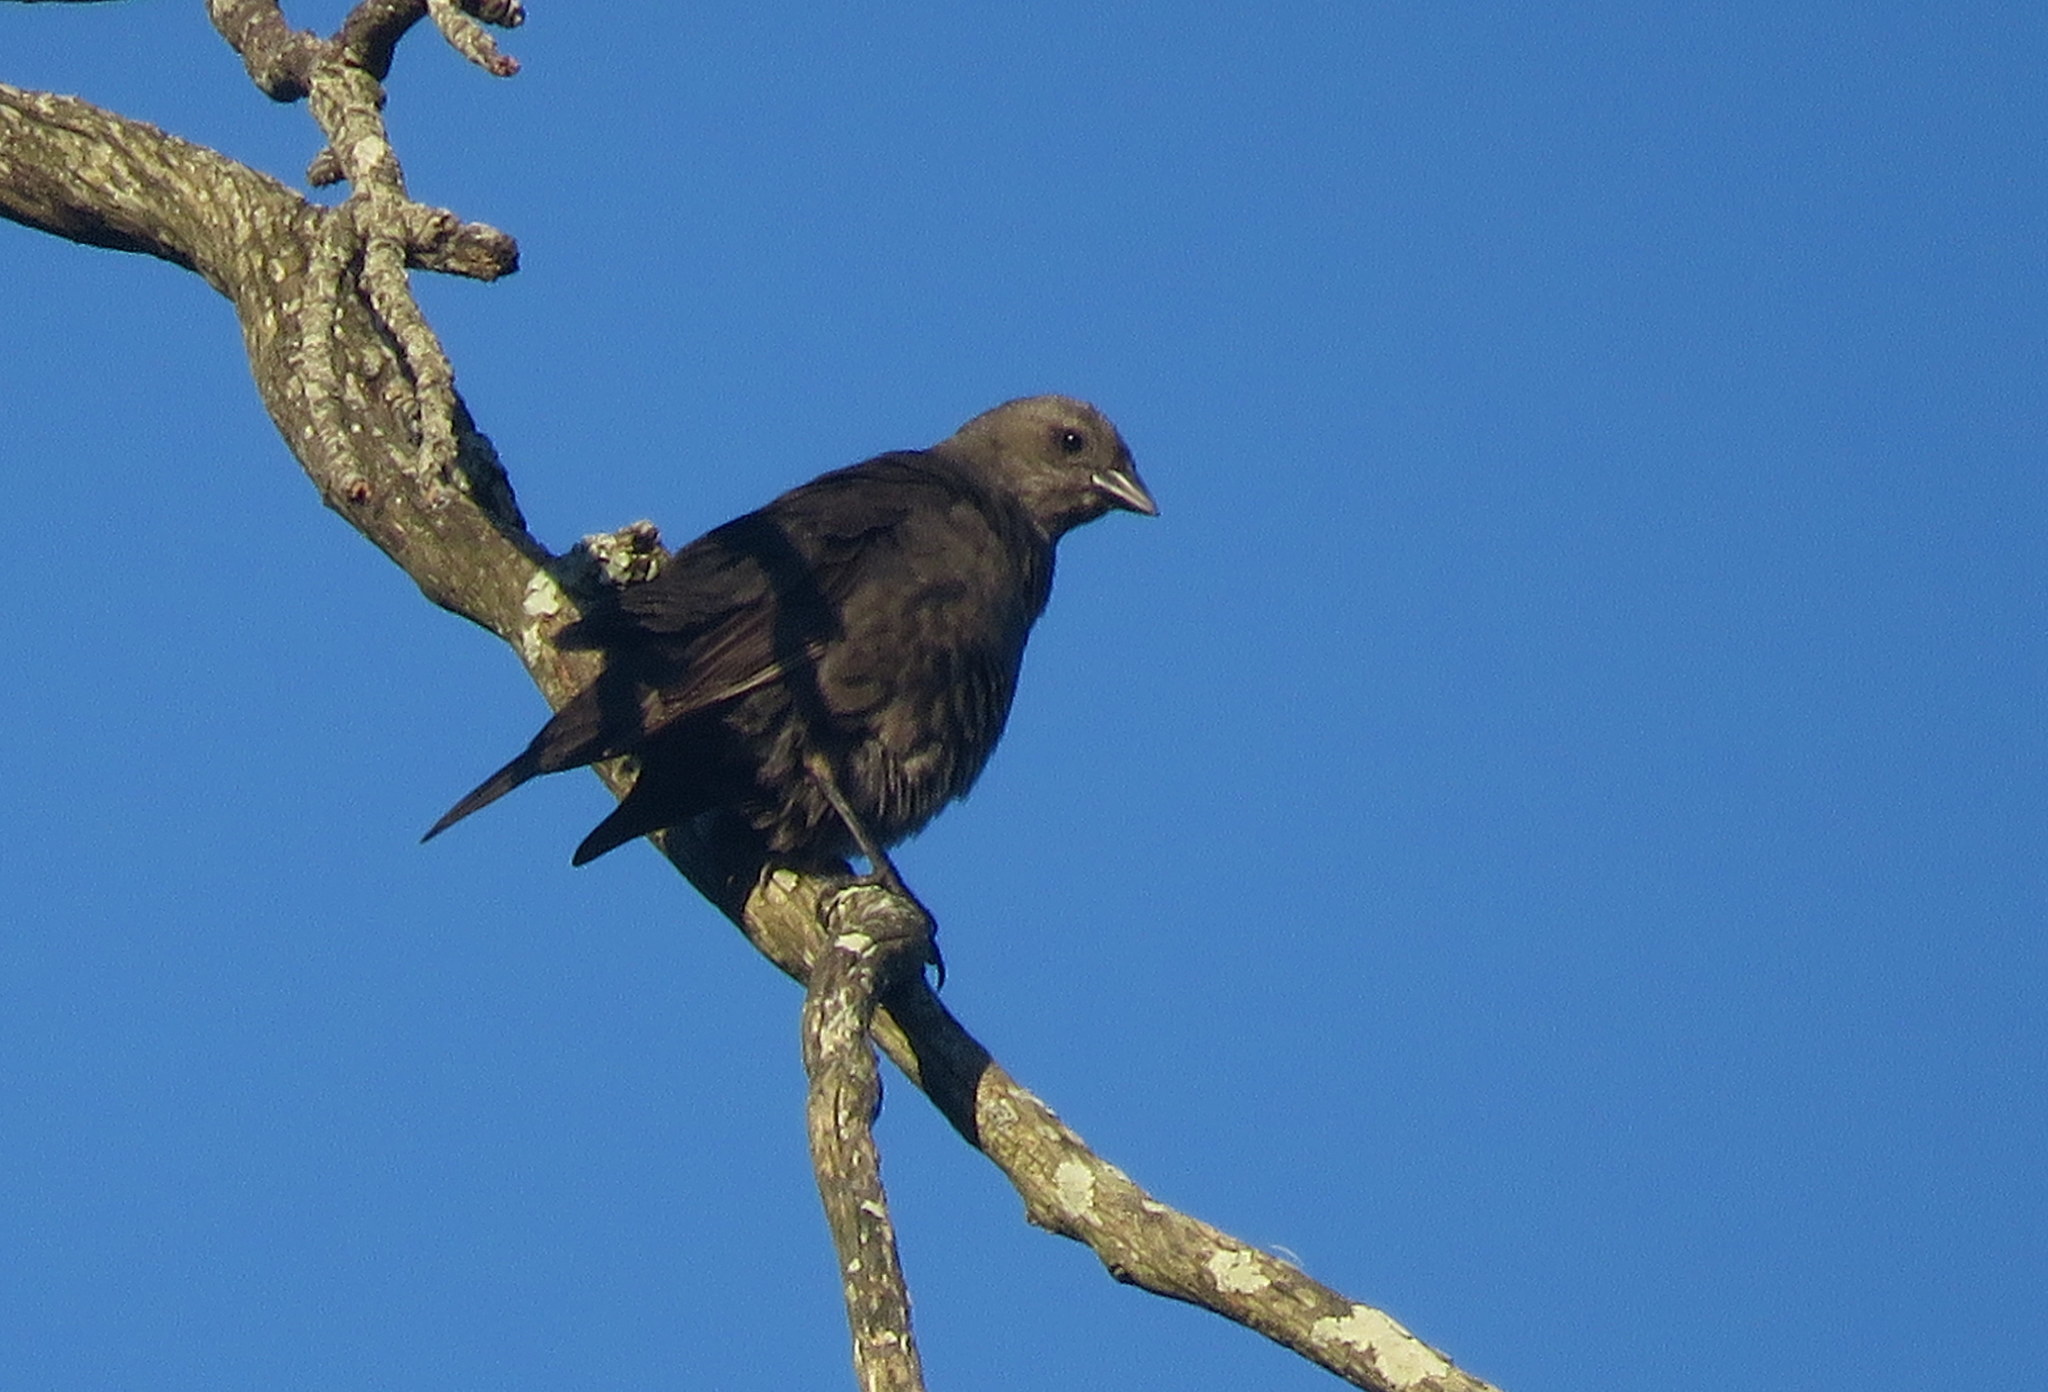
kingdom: Animalia
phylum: Chordata
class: Aves
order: Passeriformes
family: Icteridae
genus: Molothrus
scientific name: Molothrus bonariensis
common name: Shiny cowbird
